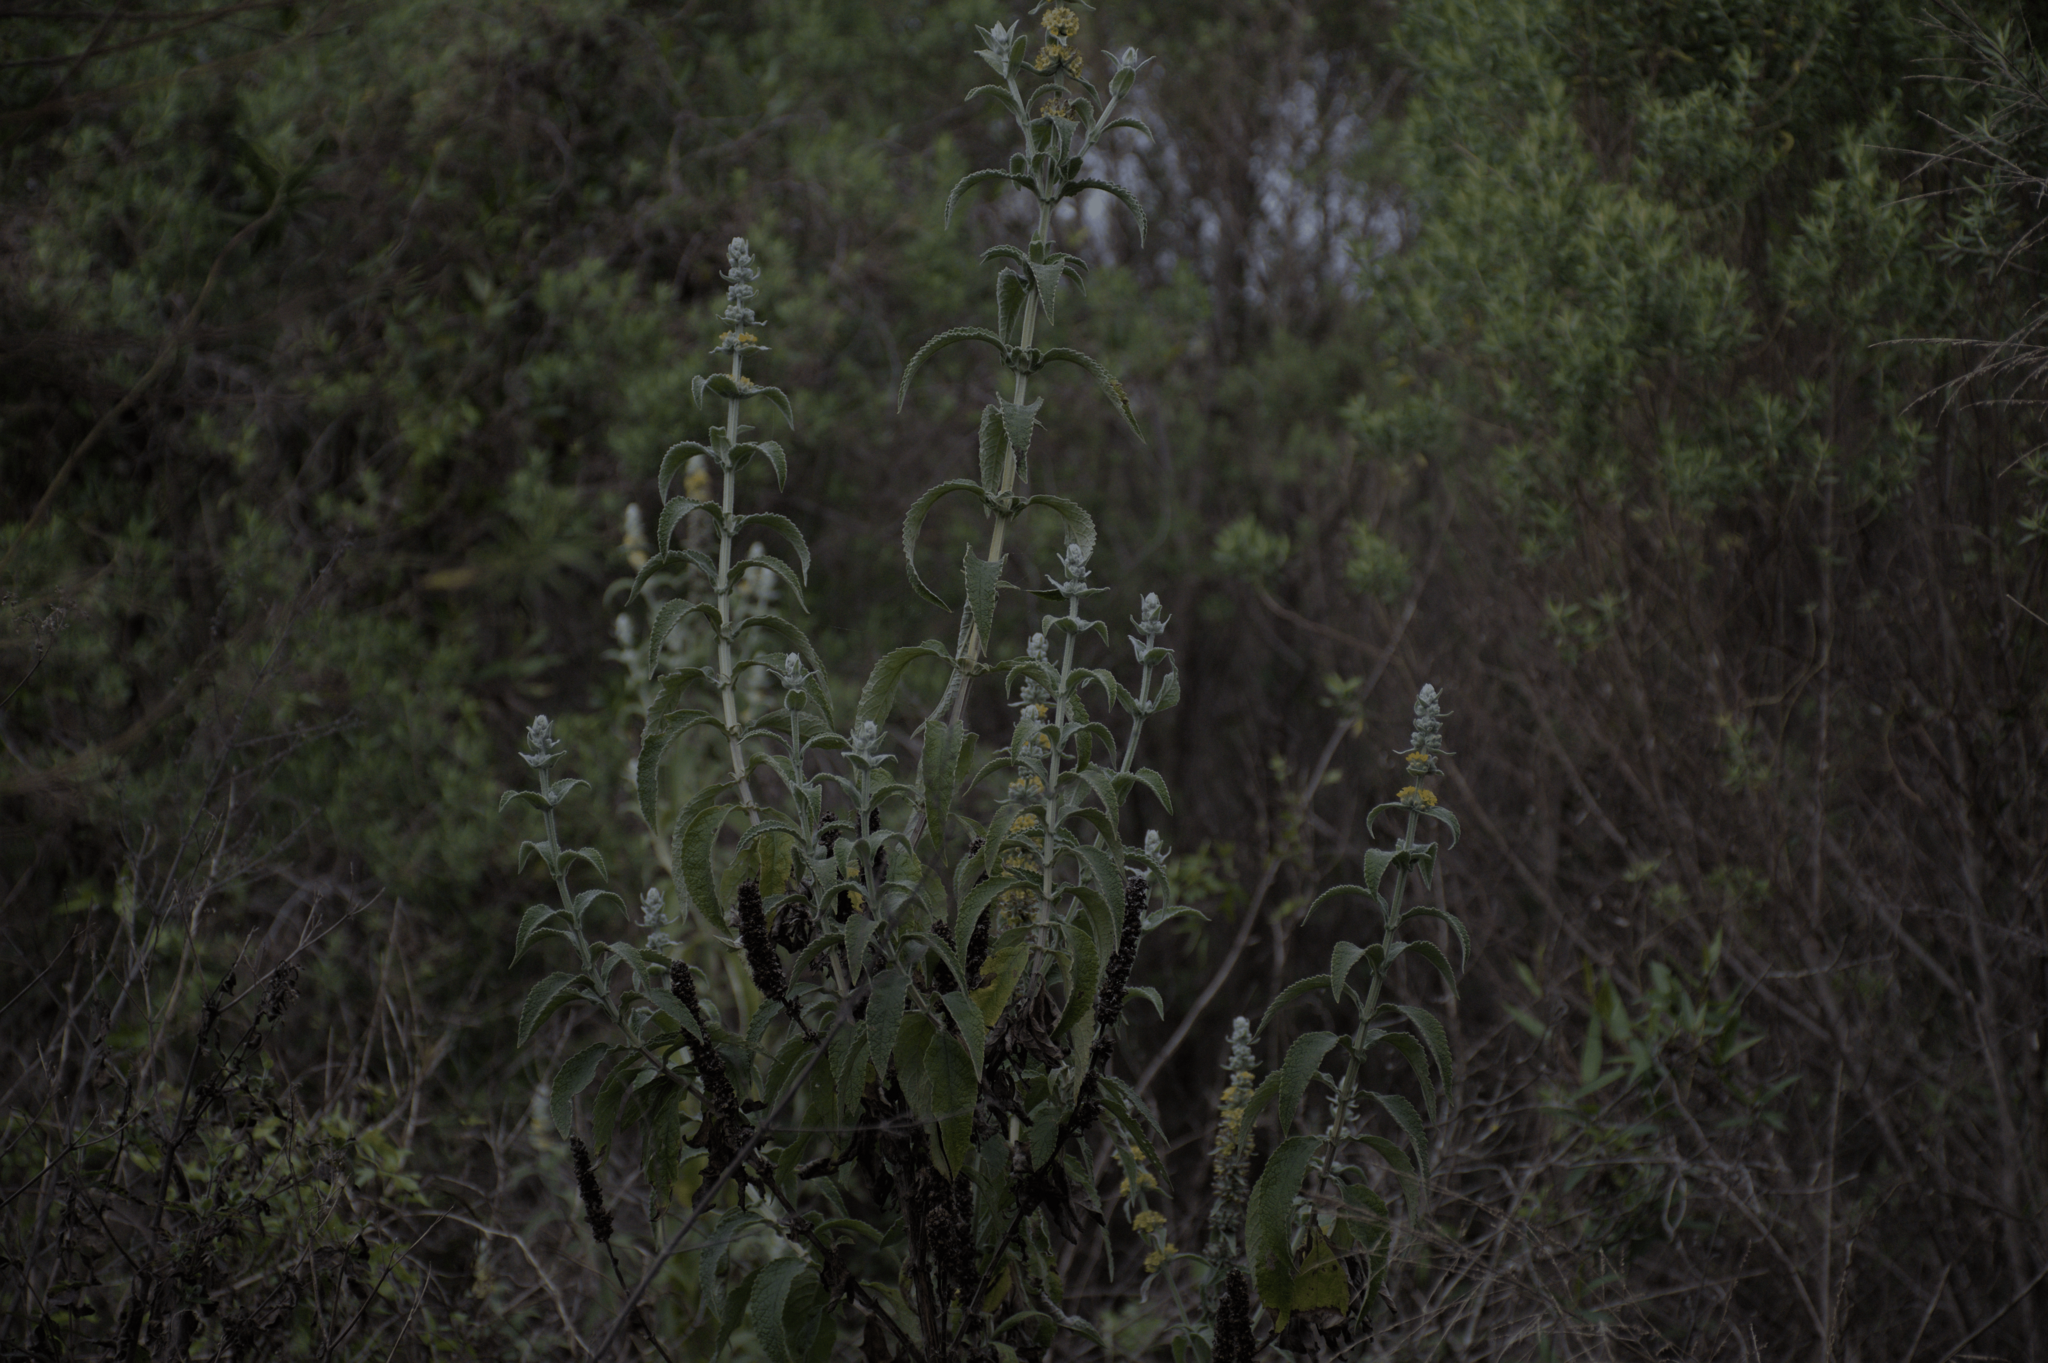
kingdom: Plantae
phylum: Tracheophyta
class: Magnoliopsida
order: Lamiales
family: Scrophulariaceae
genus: Buddleja
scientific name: Buddleja stachyoides
